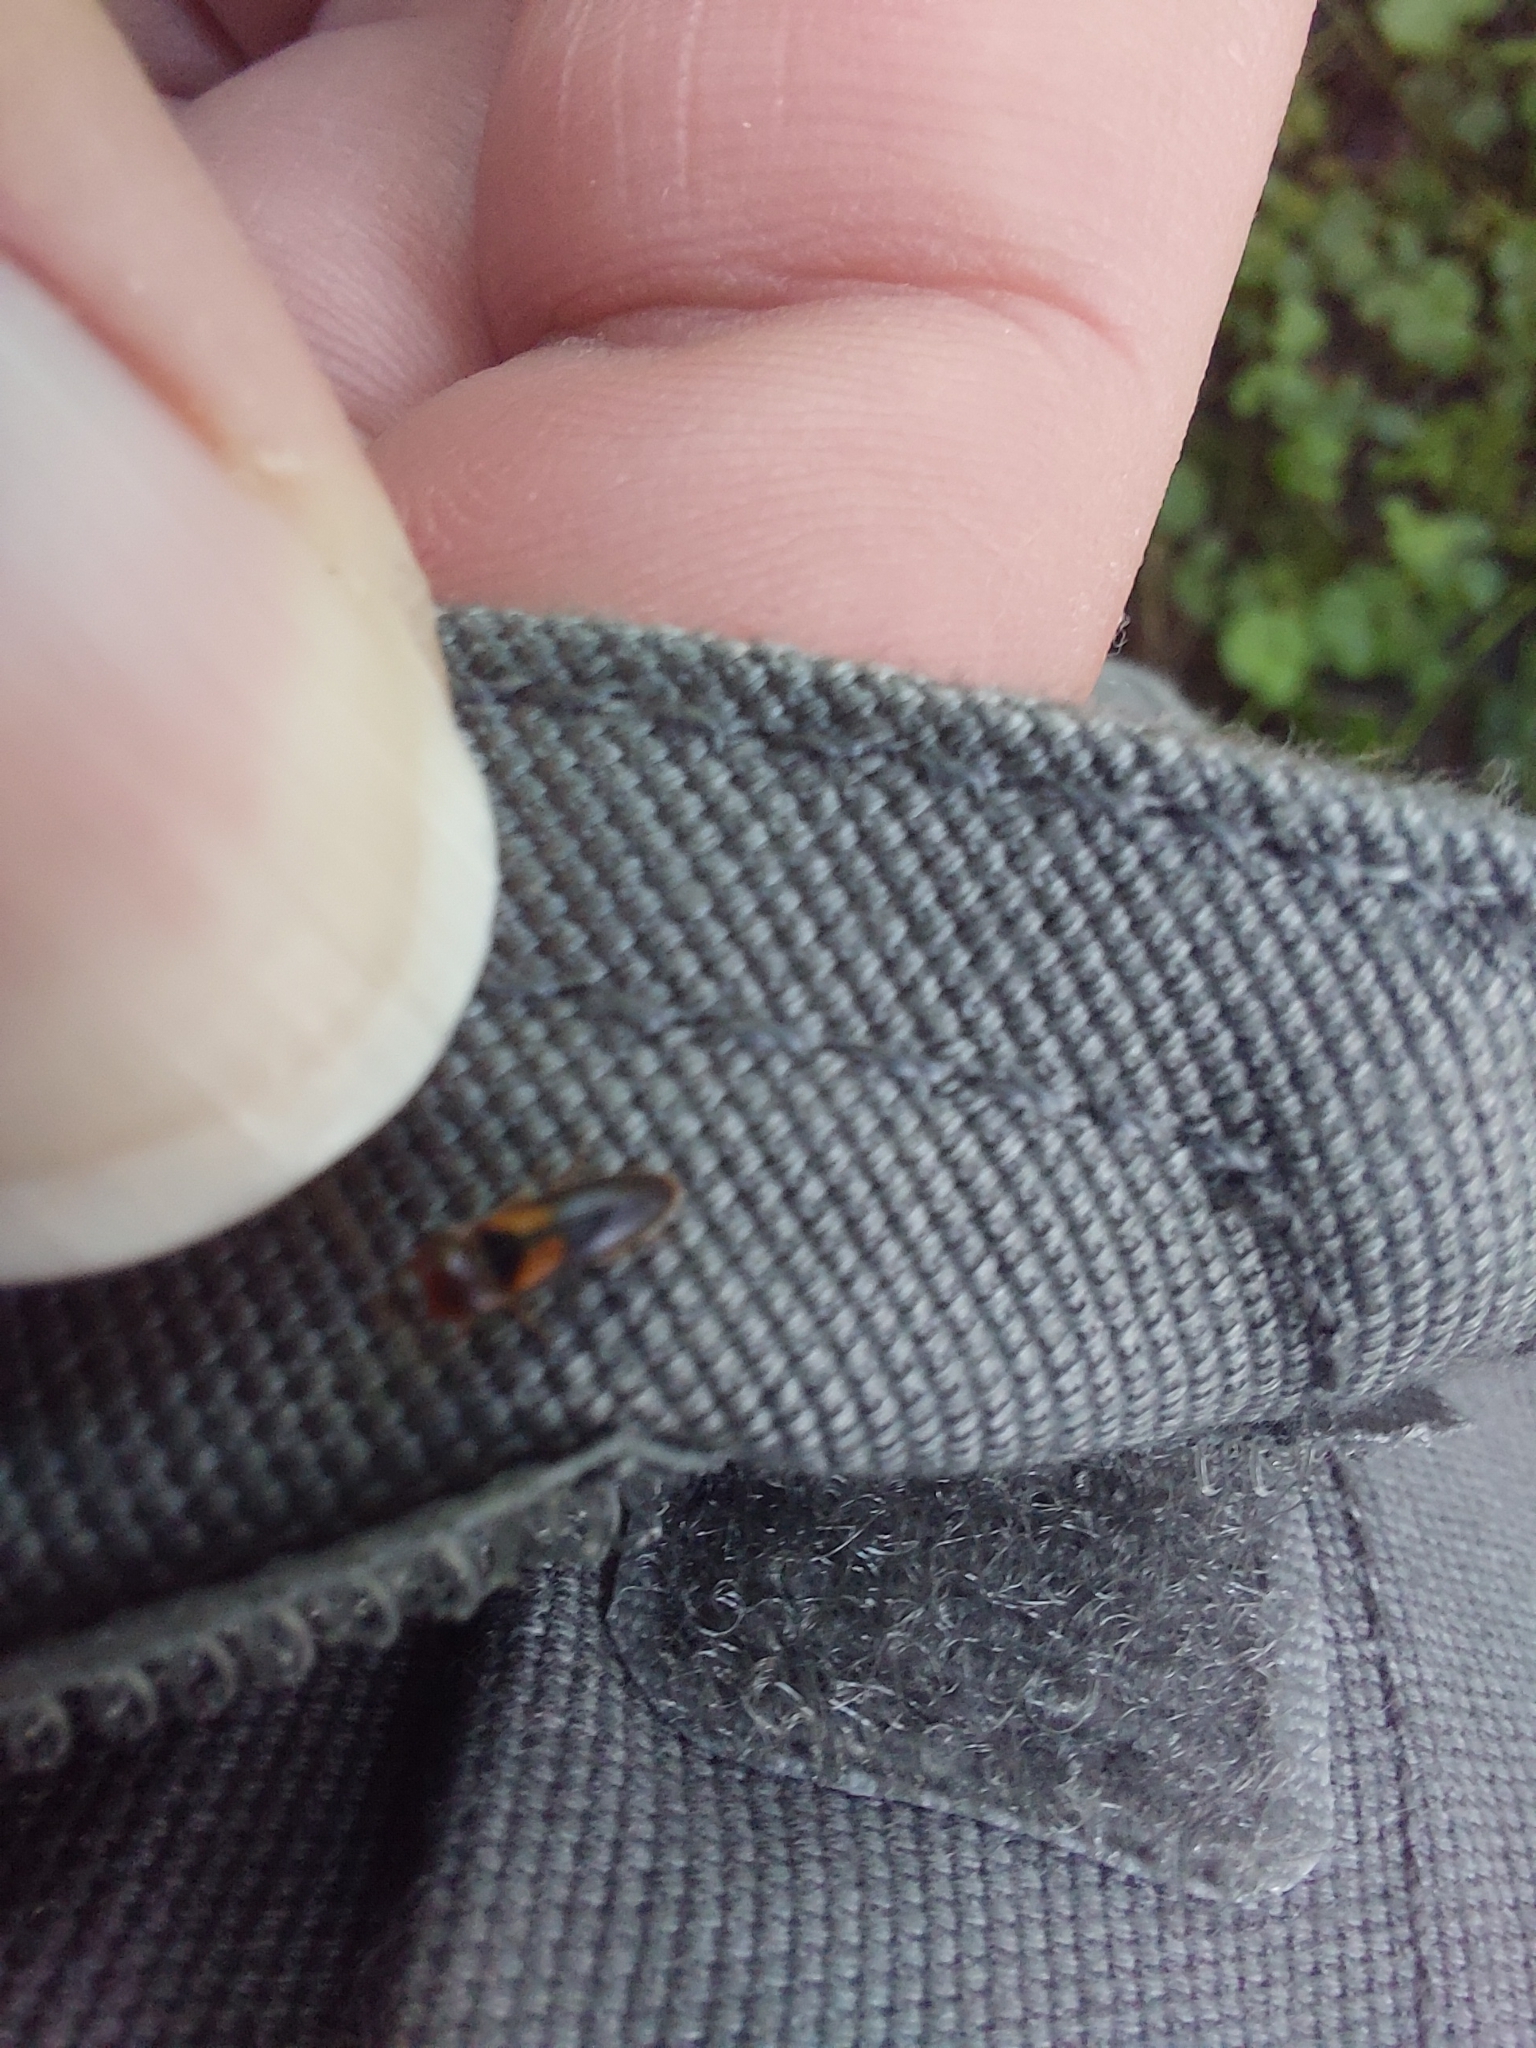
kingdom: Animalia
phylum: Arthropoda
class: Insecta
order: Coleoptera
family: Elateridae
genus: Ampedus
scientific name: Ampedus areolatus
